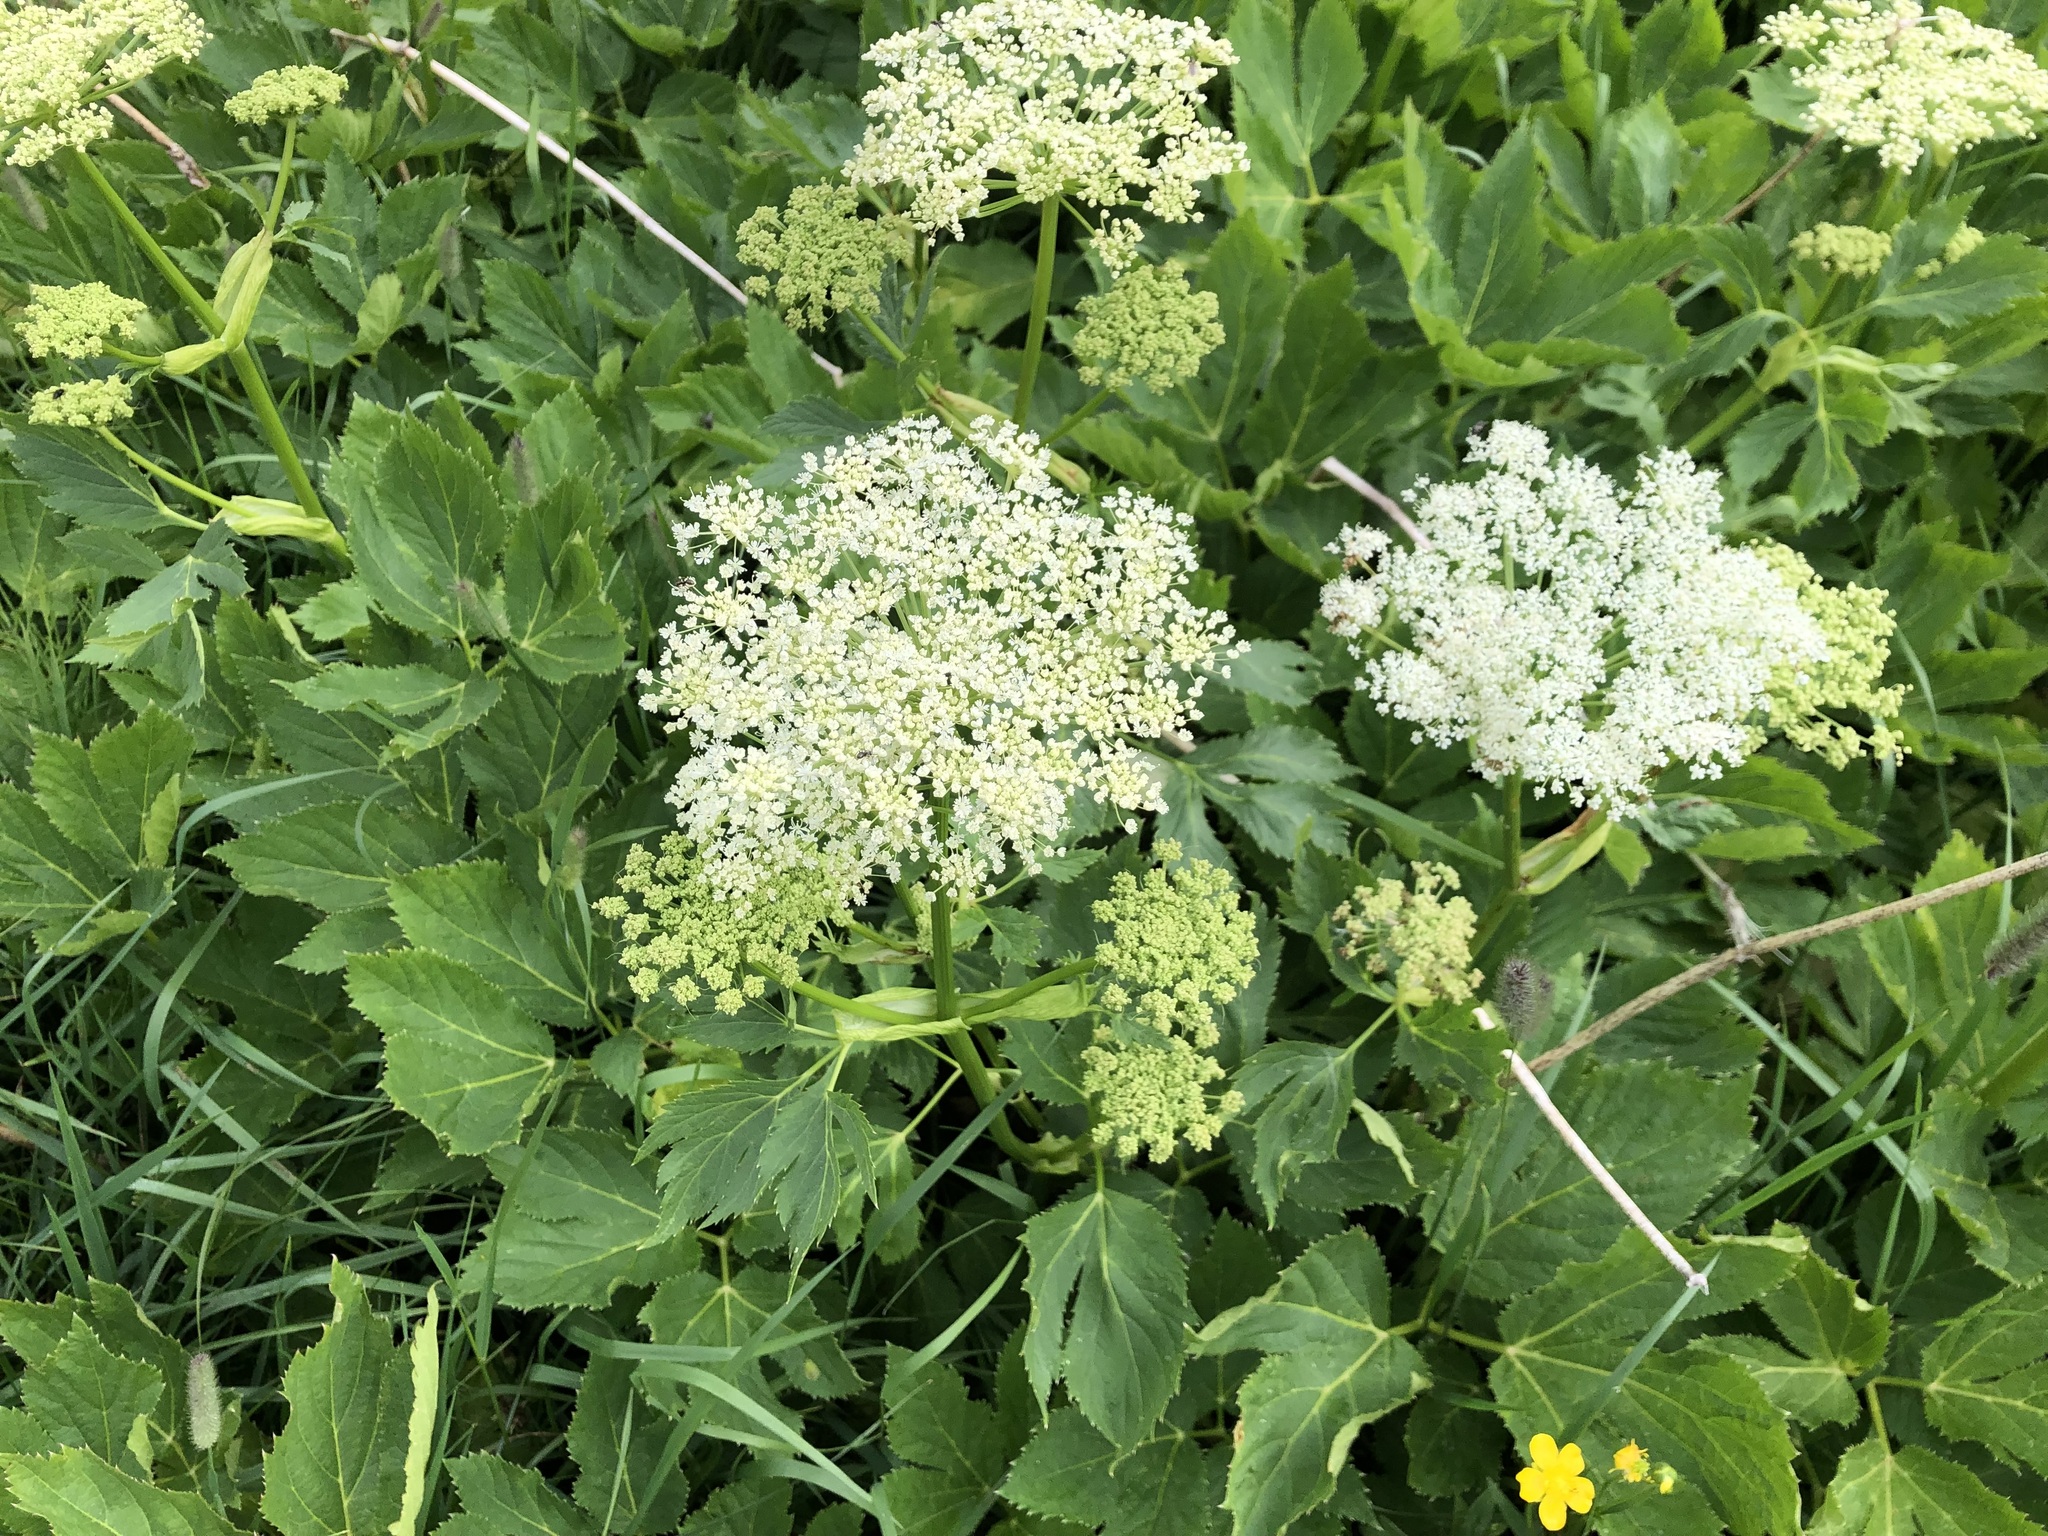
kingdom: Plantae
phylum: Tracheophyta
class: Magnoliopsida
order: Apiales
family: Apiaceae
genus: Imperatoria
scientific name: Imperatoria ostruthium
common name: Masterwort
